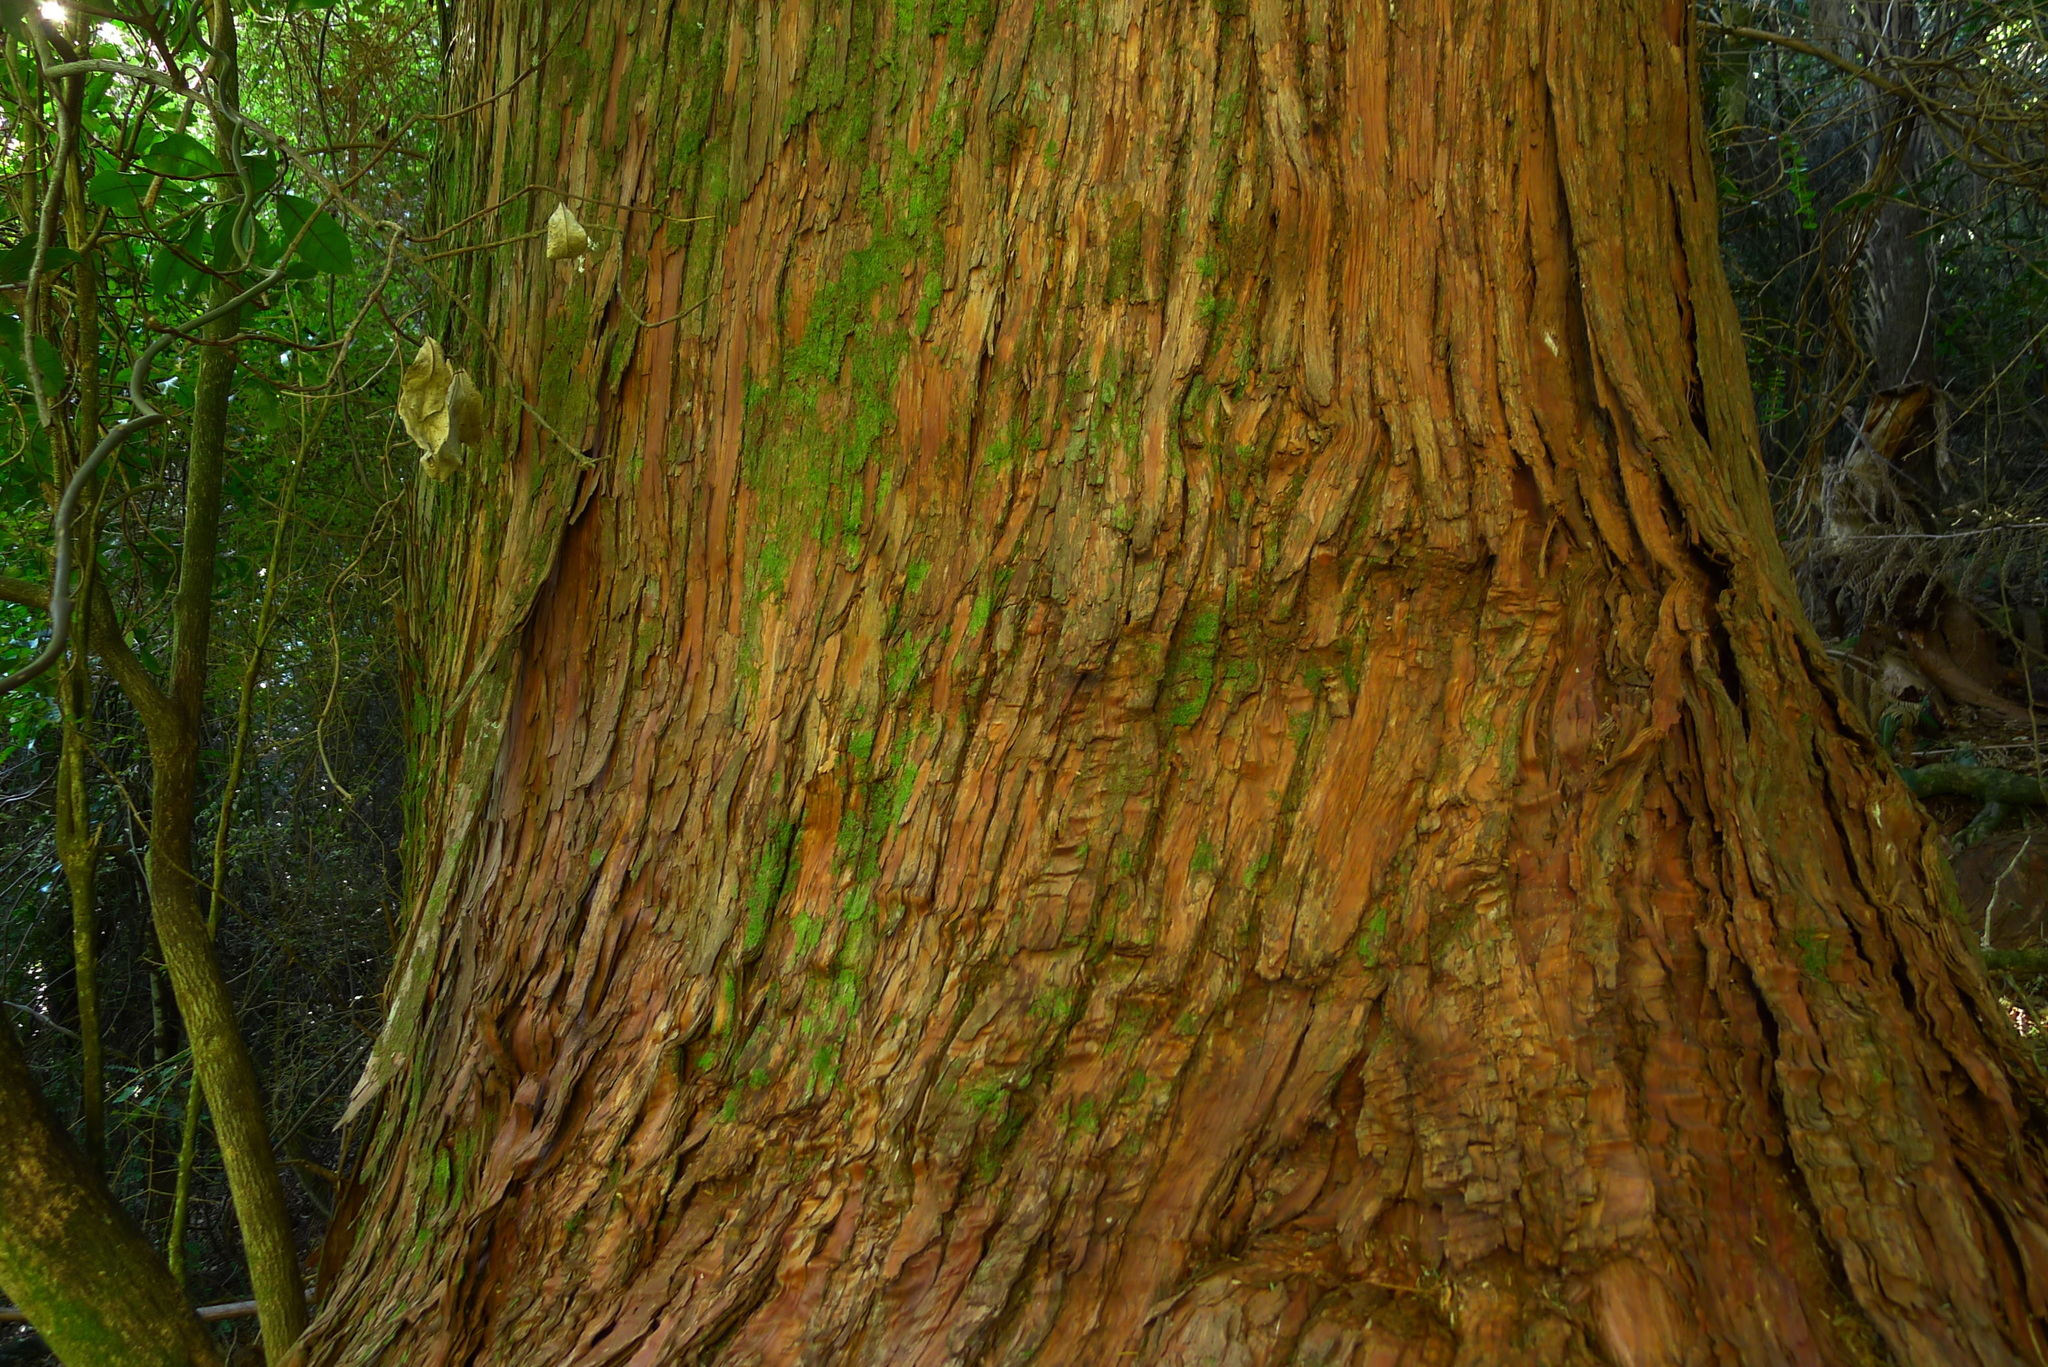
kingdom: Plantae
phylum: Tracheophyta
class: Pinopsida
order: Pinales
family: Podocarpaceae
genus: Podocarpus
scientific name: Podocarpus totara
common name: Totara
